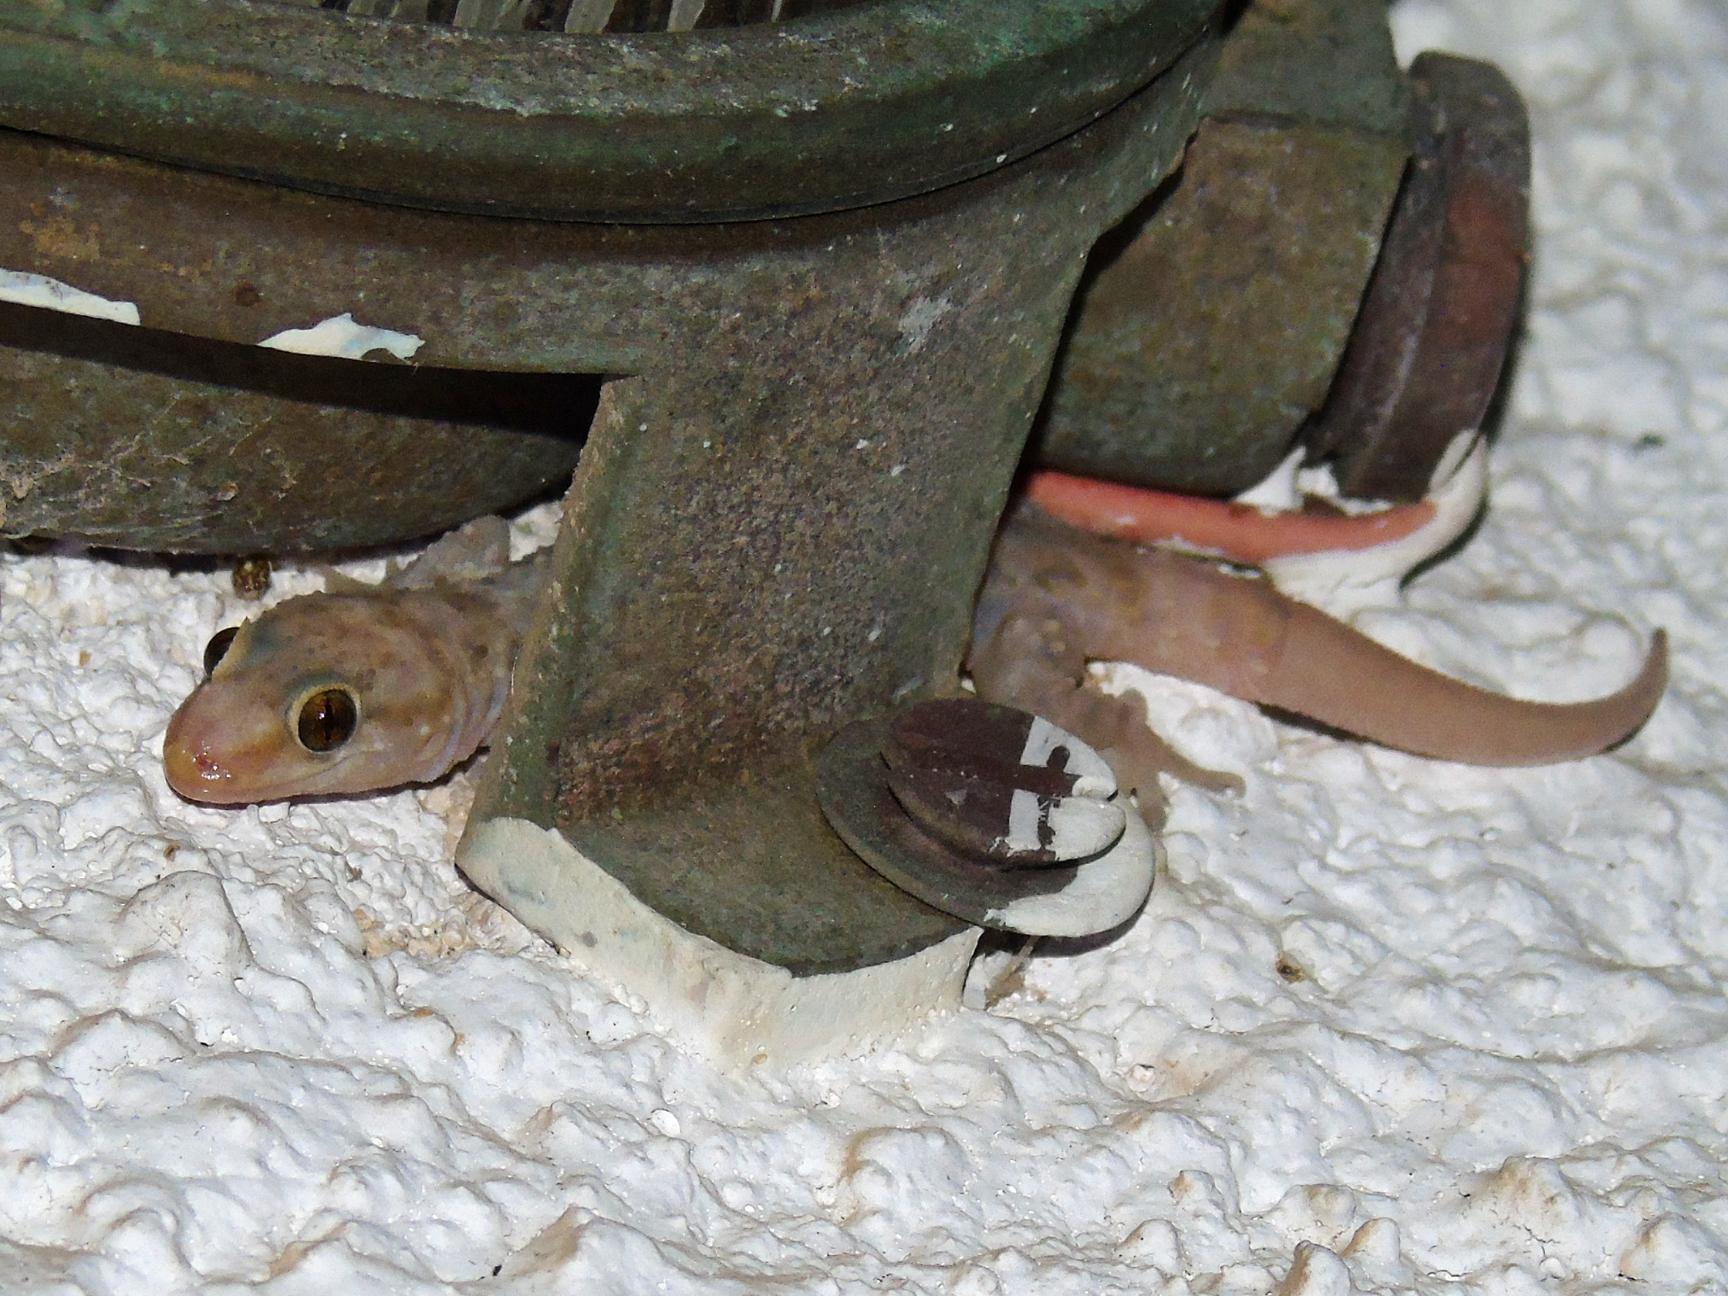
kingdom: Animalia
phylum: Chordata
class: Squamata
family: Gekkonidae
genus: Hemidactylus
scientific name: Hemidactylus turcicus
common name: Turkish gecko
